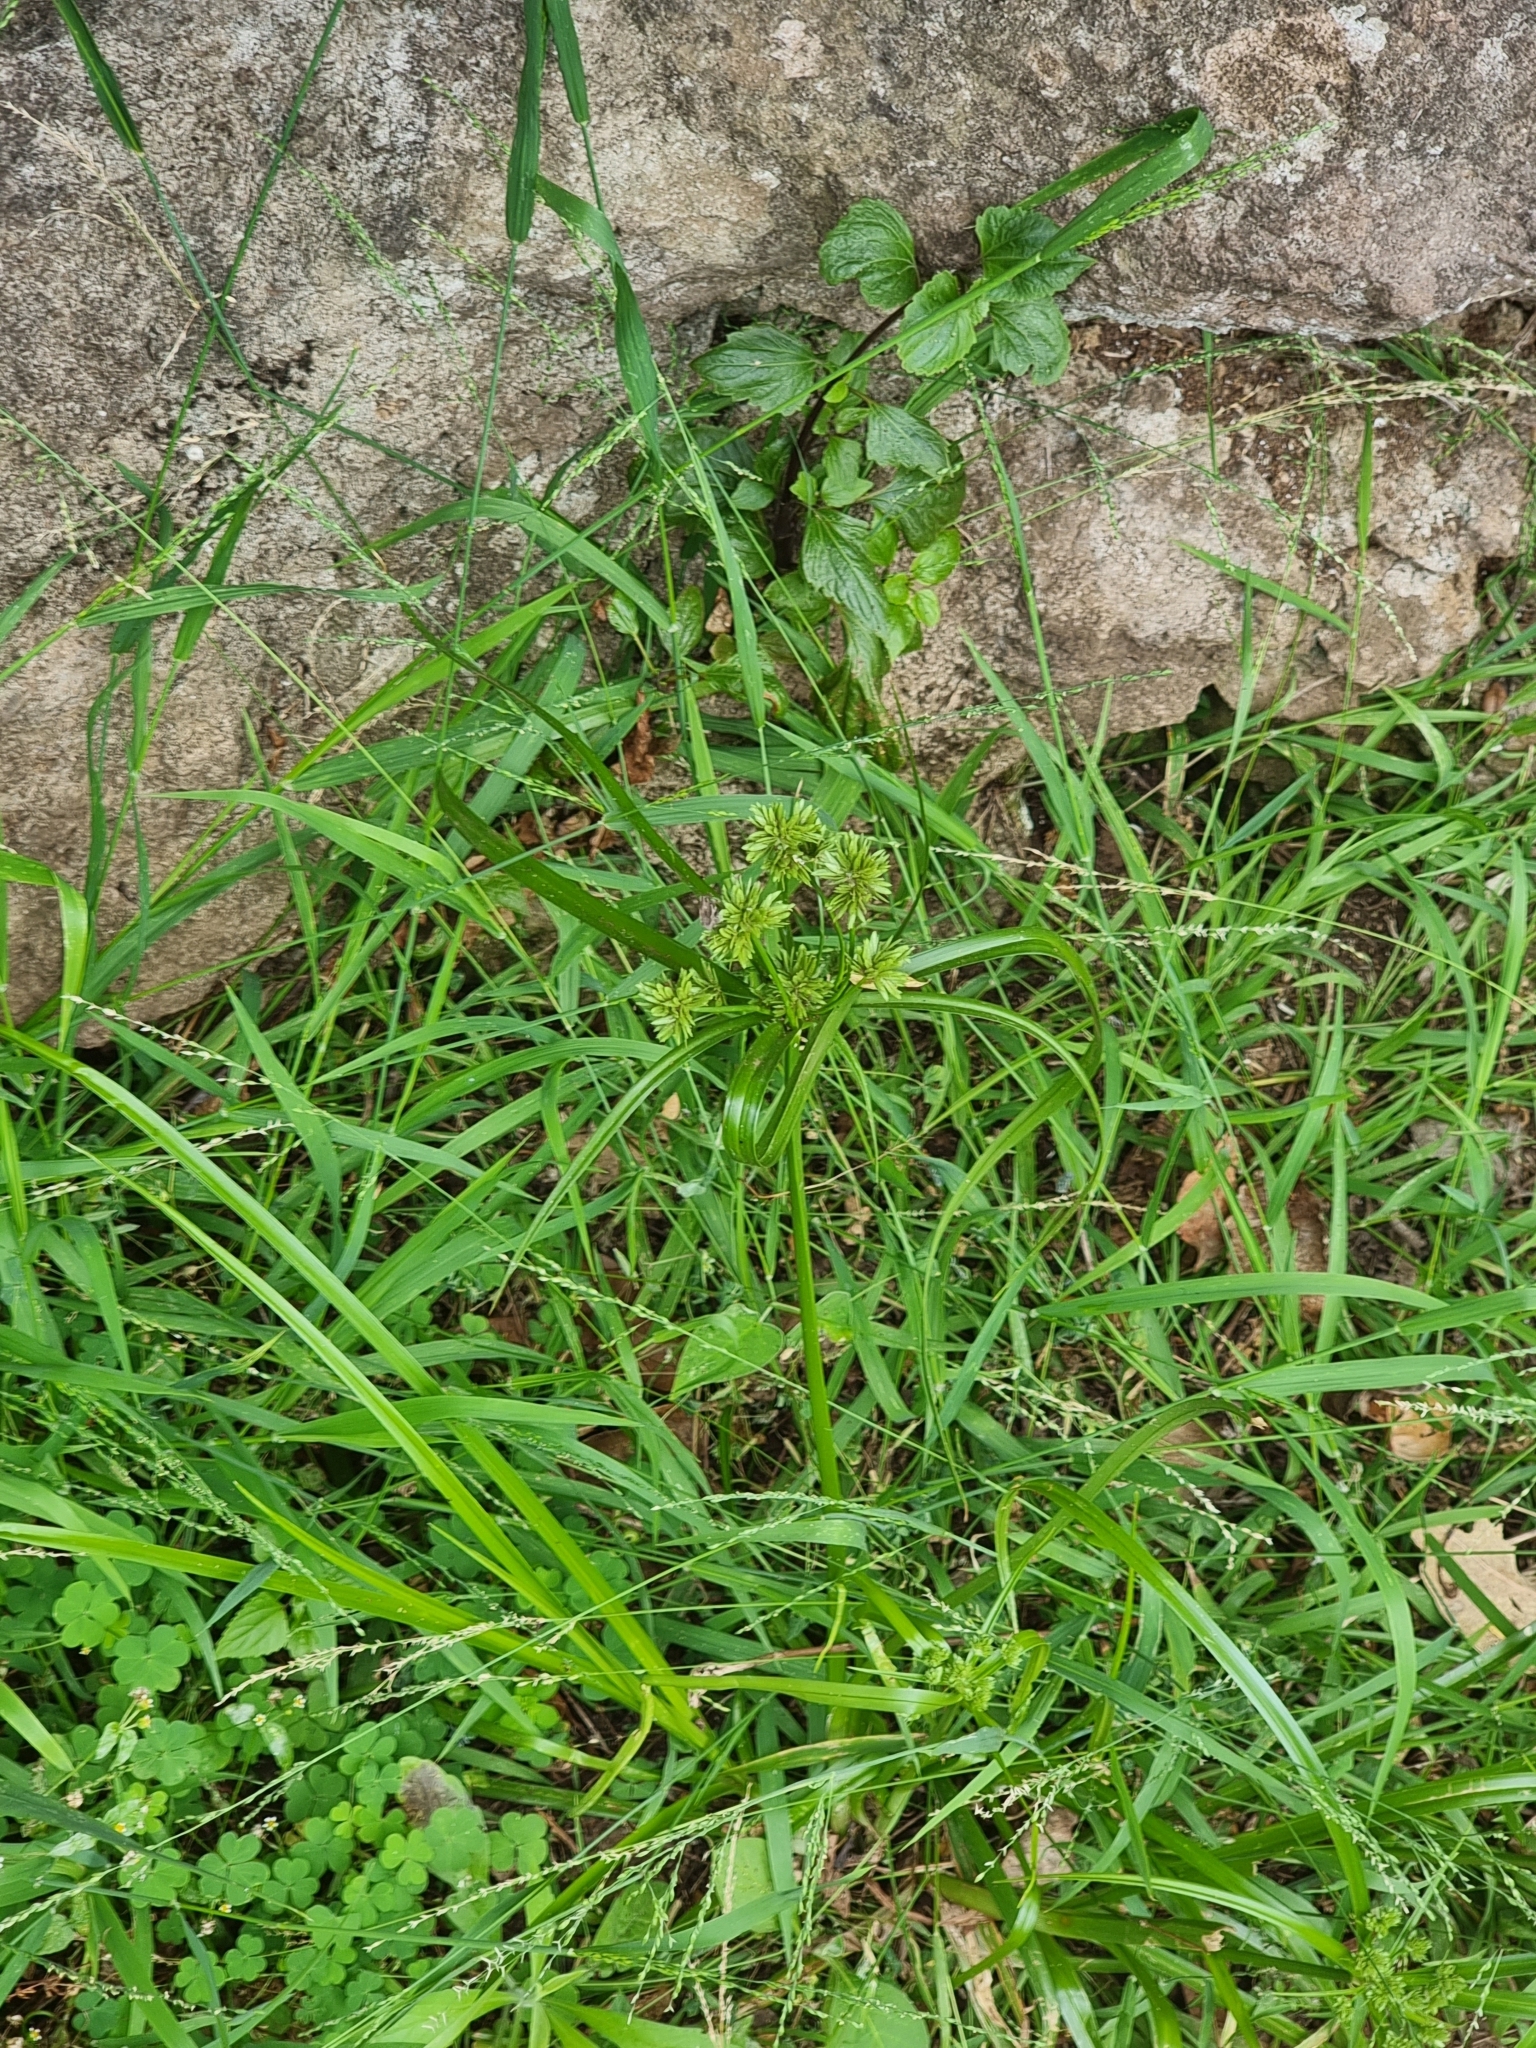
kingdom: Plantae
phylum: Tracheophyta
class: Liliopsida
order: Poales
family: Cyperaceae
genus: Cyperus
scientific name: Cyperus eragrostis
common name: Tall flatsedge
